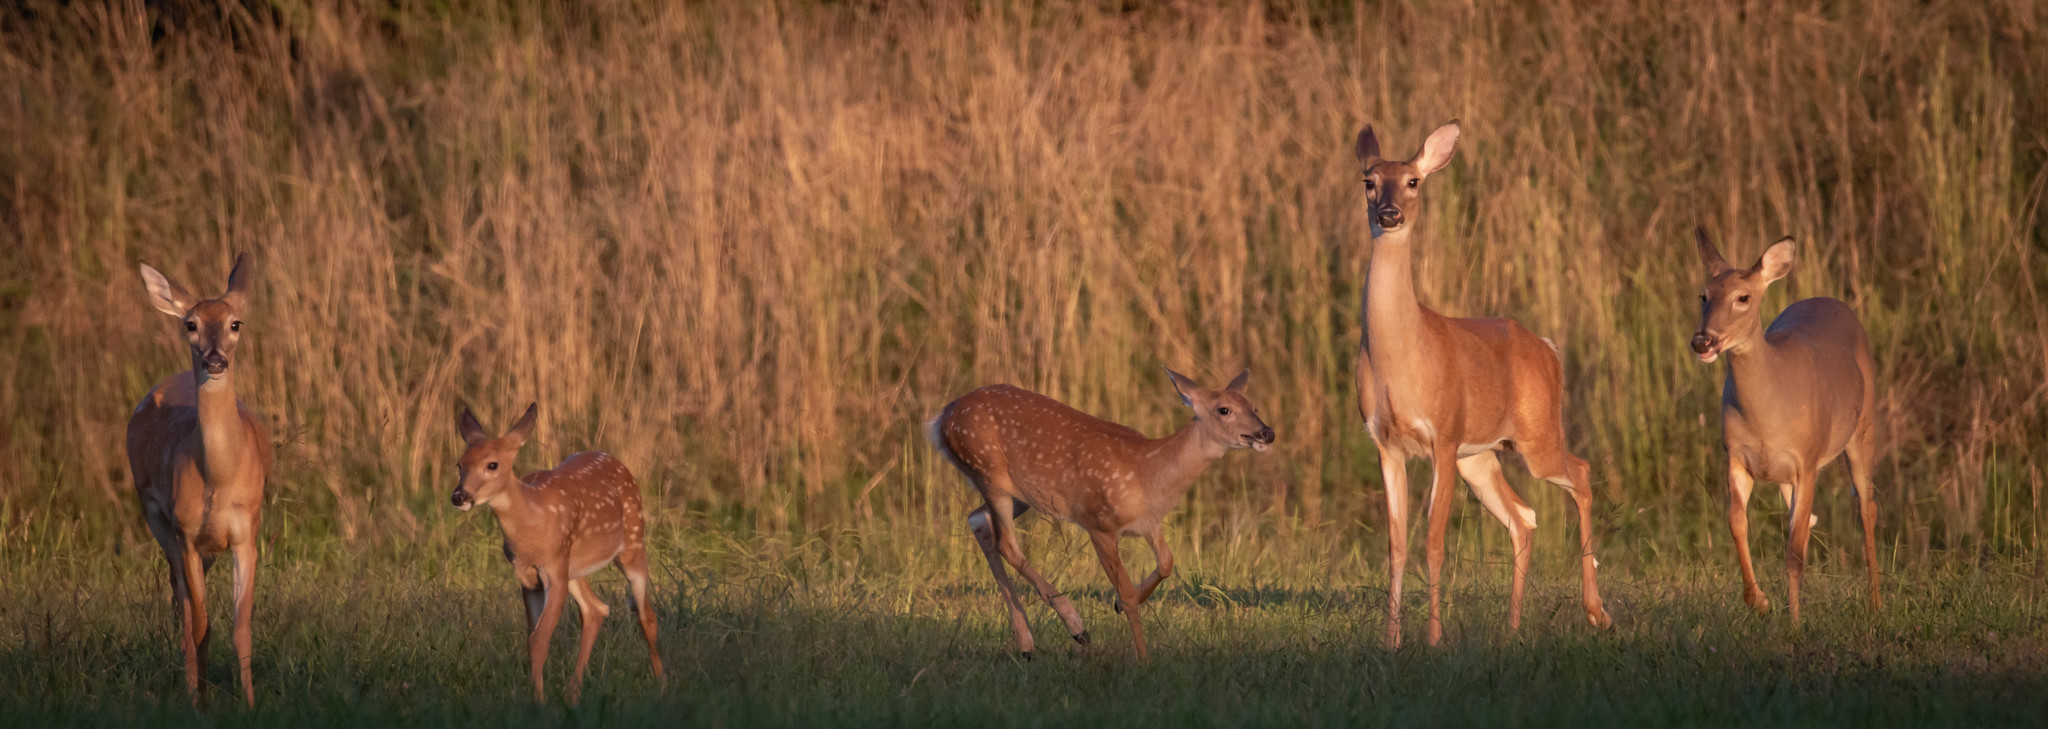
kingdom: Animalia
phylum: Chordata
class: Mammalia
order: Artiodactyla
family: Cervidae
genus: Odocoileus
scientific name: Odocoileus virginianus
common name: White-tailed deer
